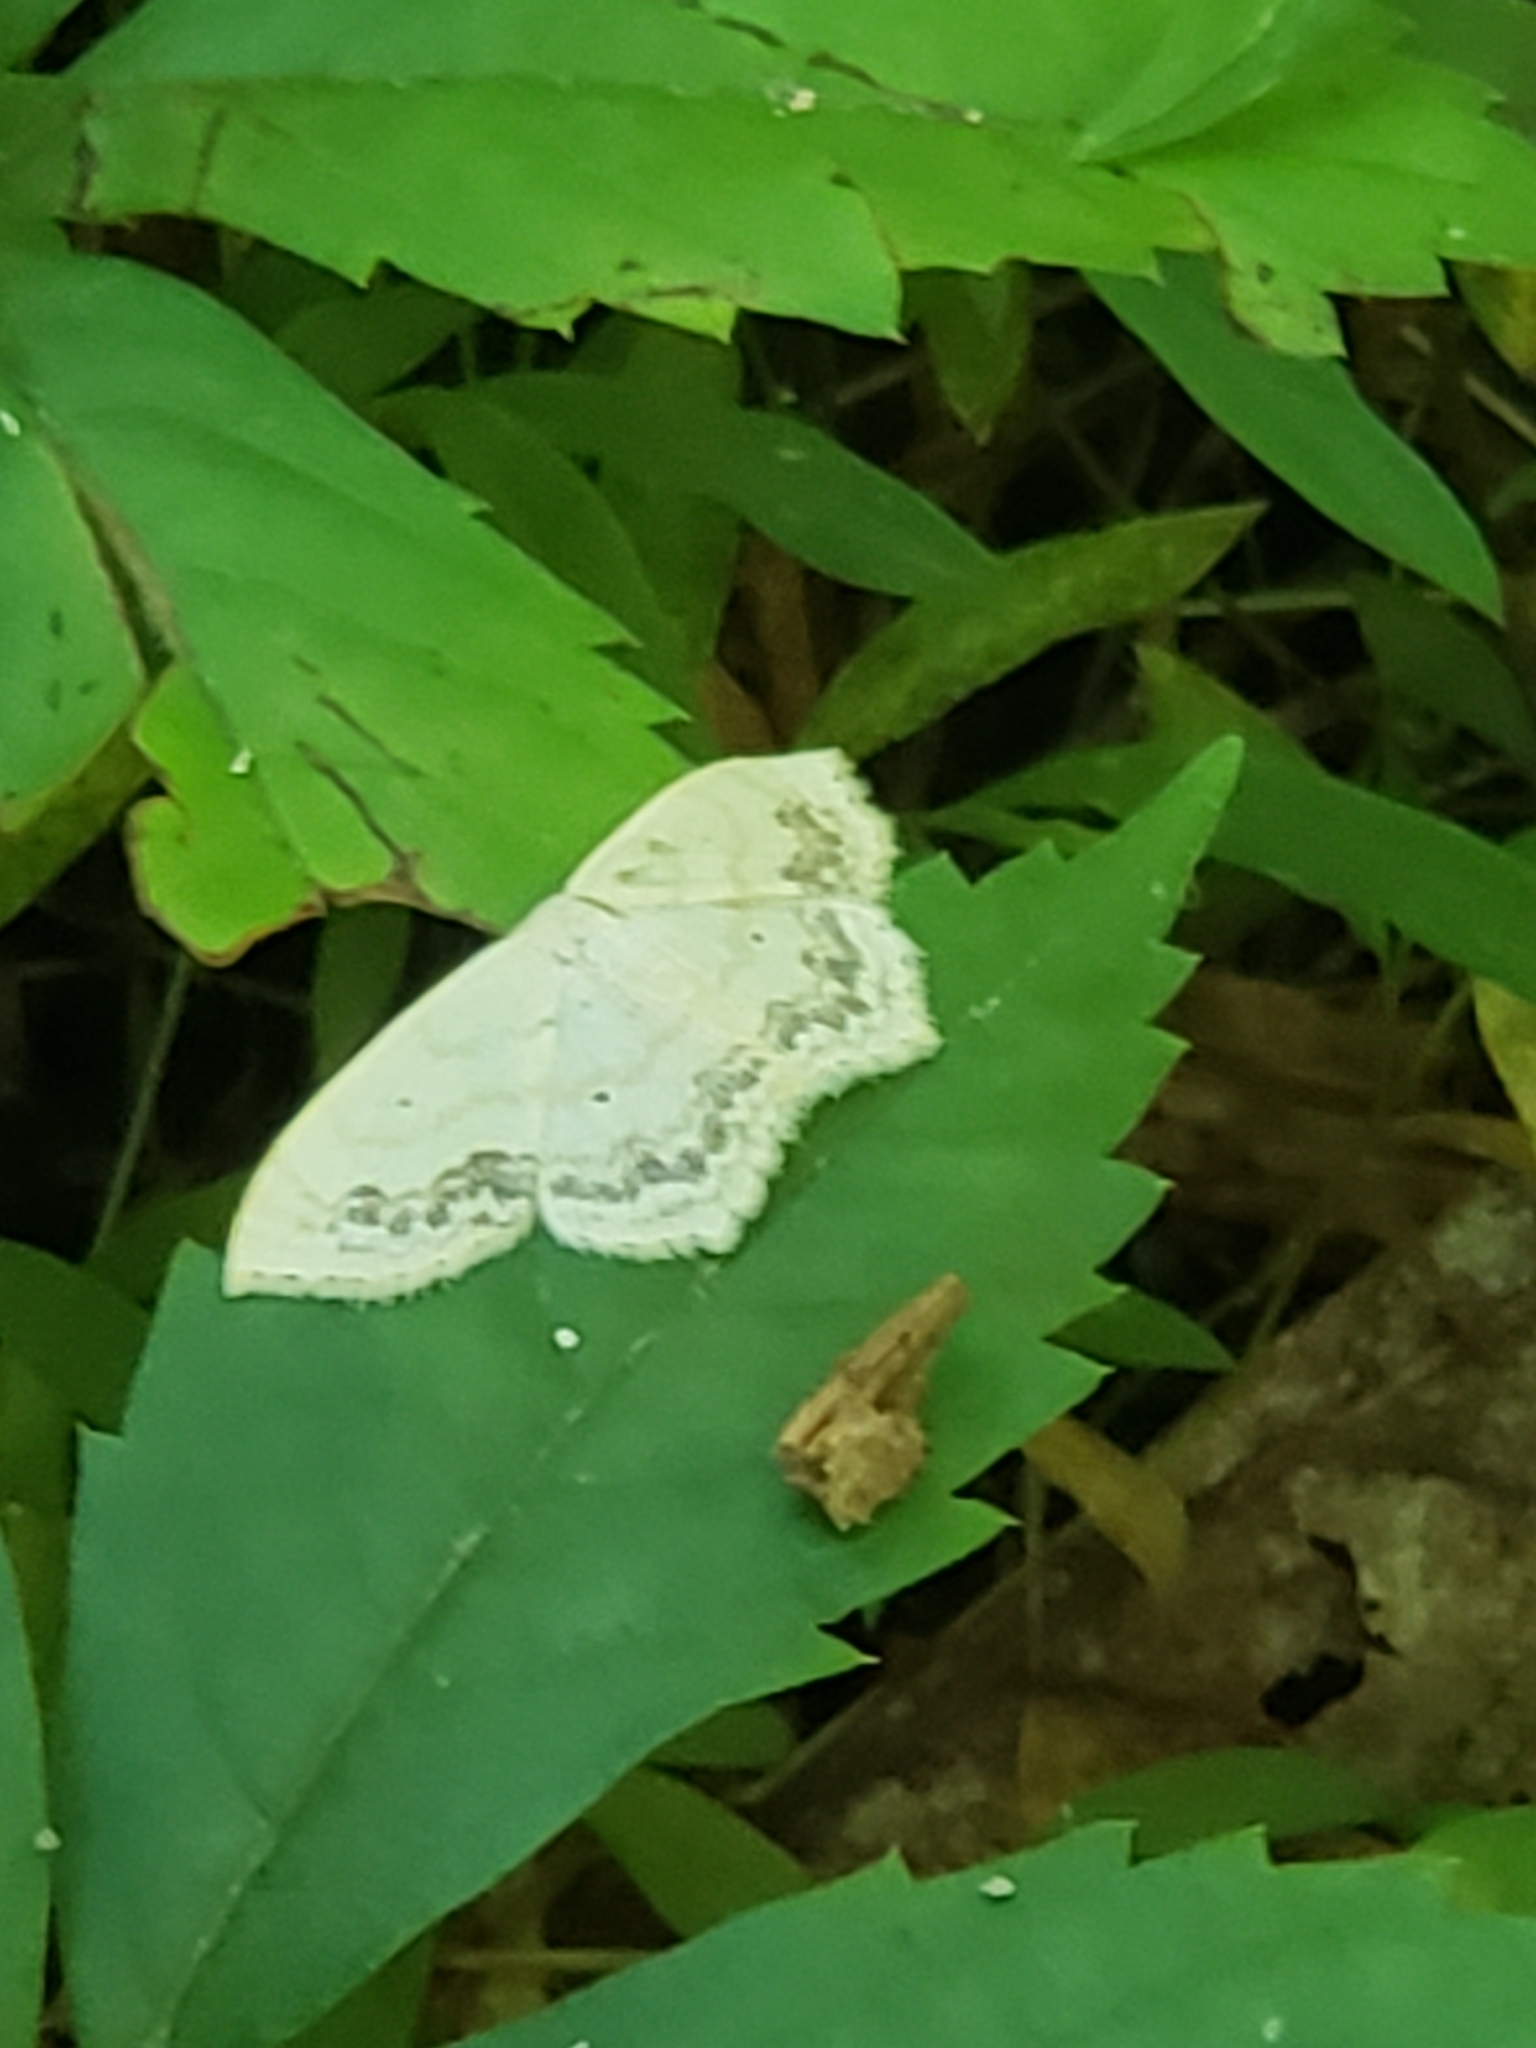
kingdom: Animalia
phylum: Arthropoda
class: Insecta
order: Lepidoptera
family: Geometridae
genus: Scopula
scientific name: Scopula limboundata
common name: Large lace border
